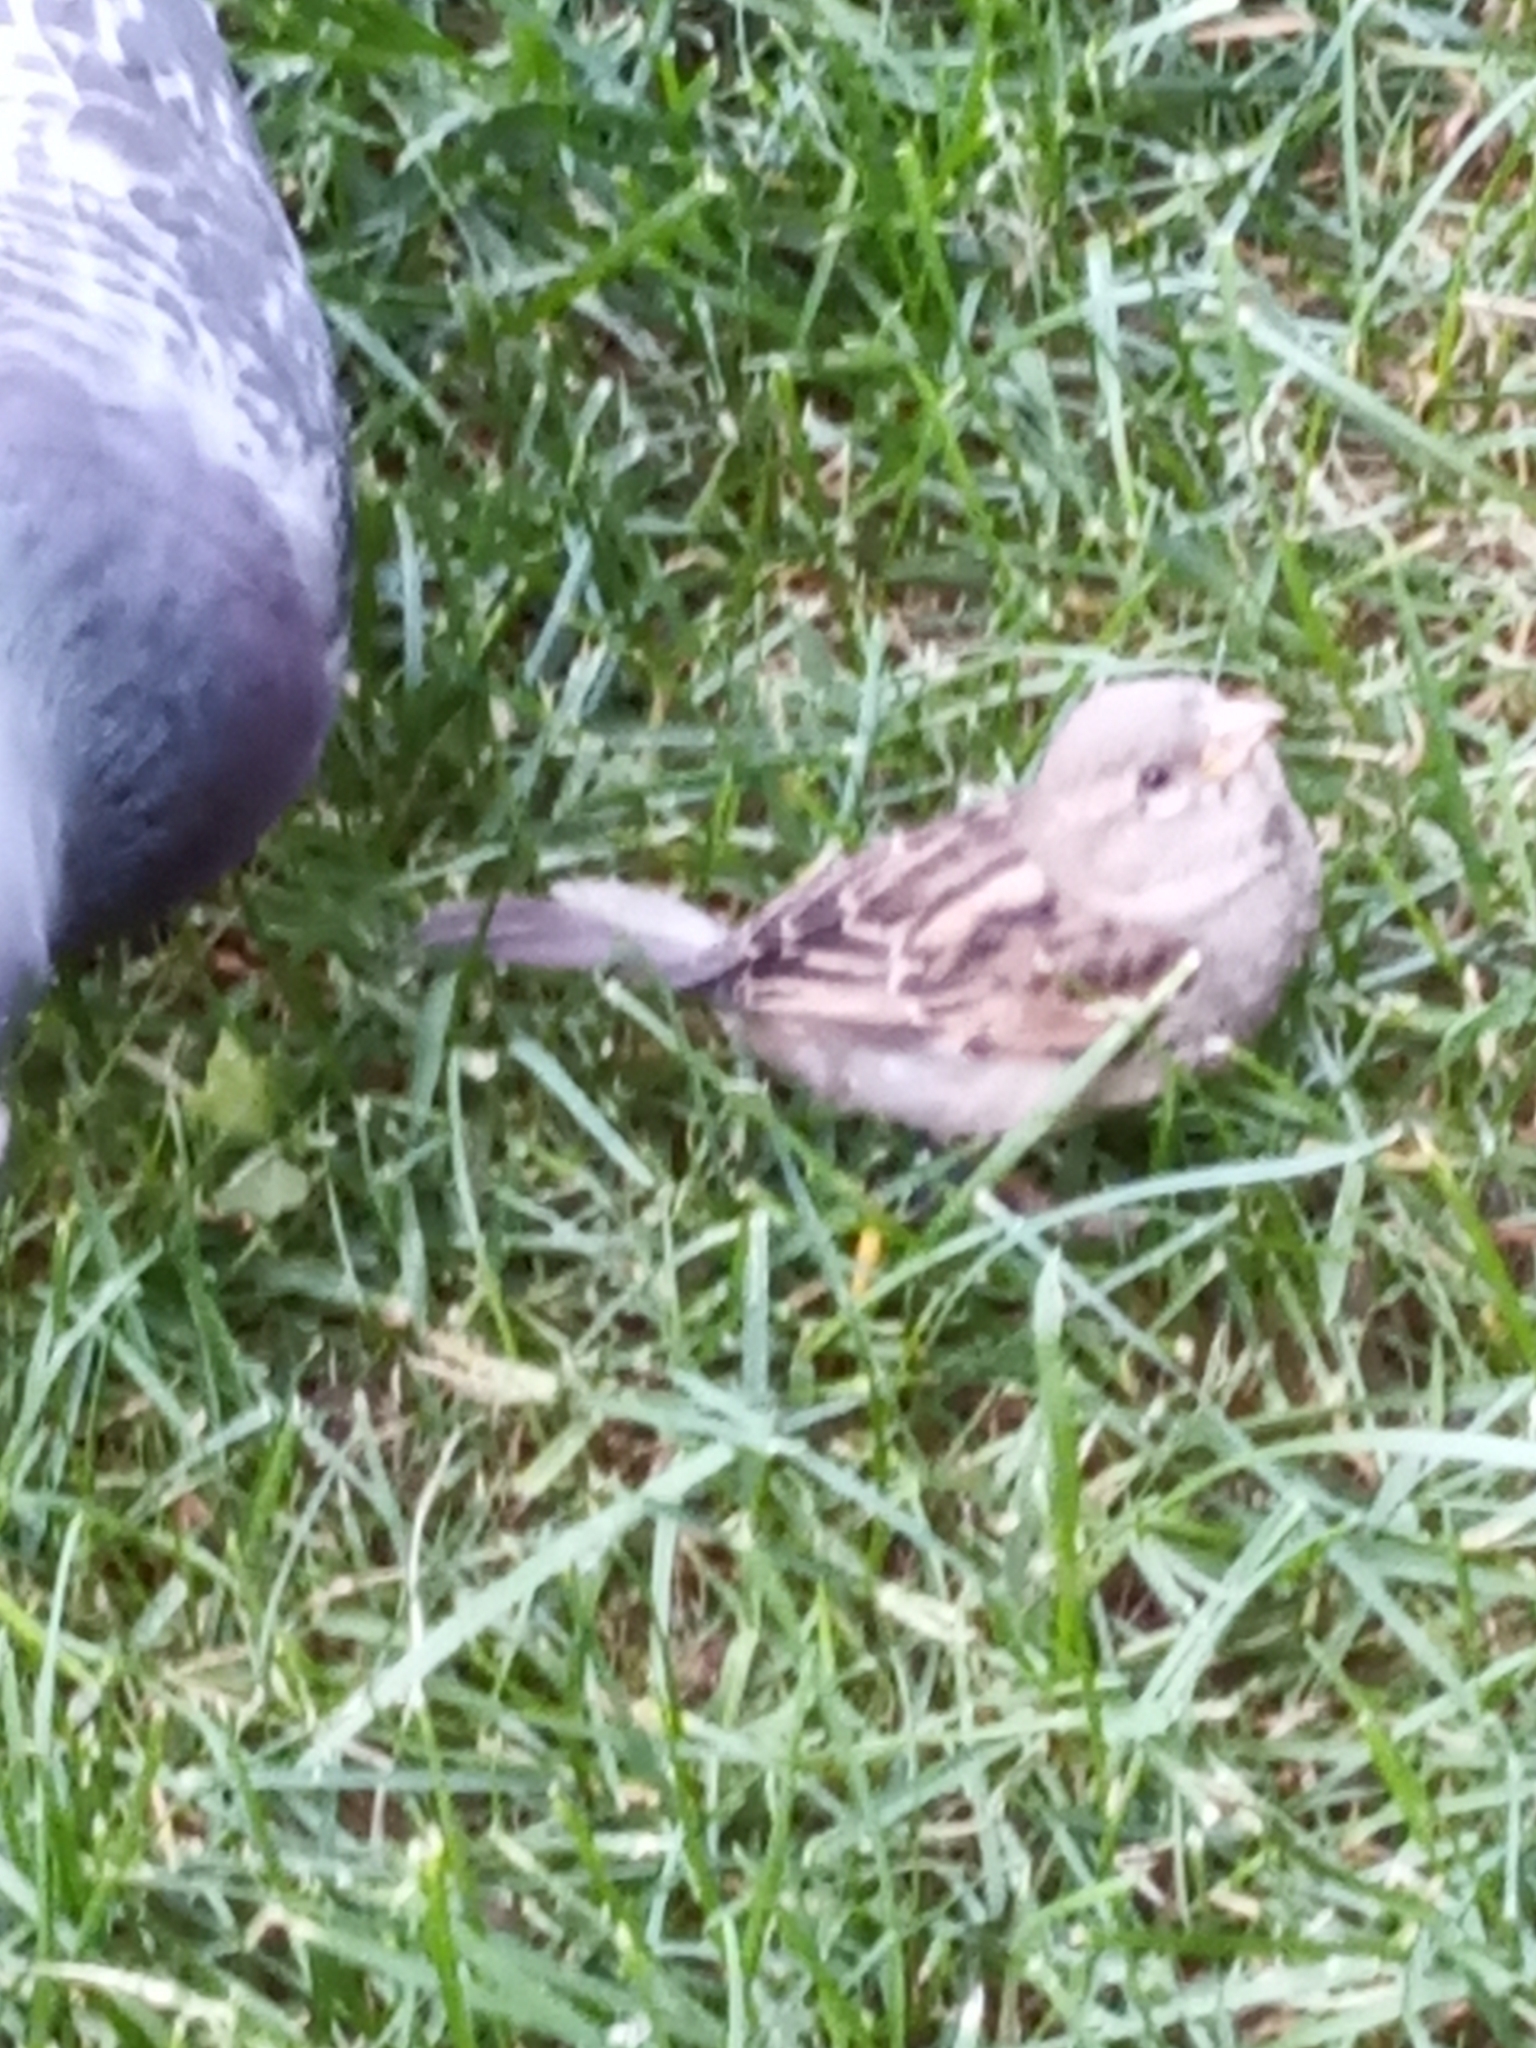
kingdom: Animalia
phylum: Chordata
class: Aves
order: Passeriformes
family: Passeridae
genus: Passer
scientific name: Passer domesticus
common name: House sparrow
